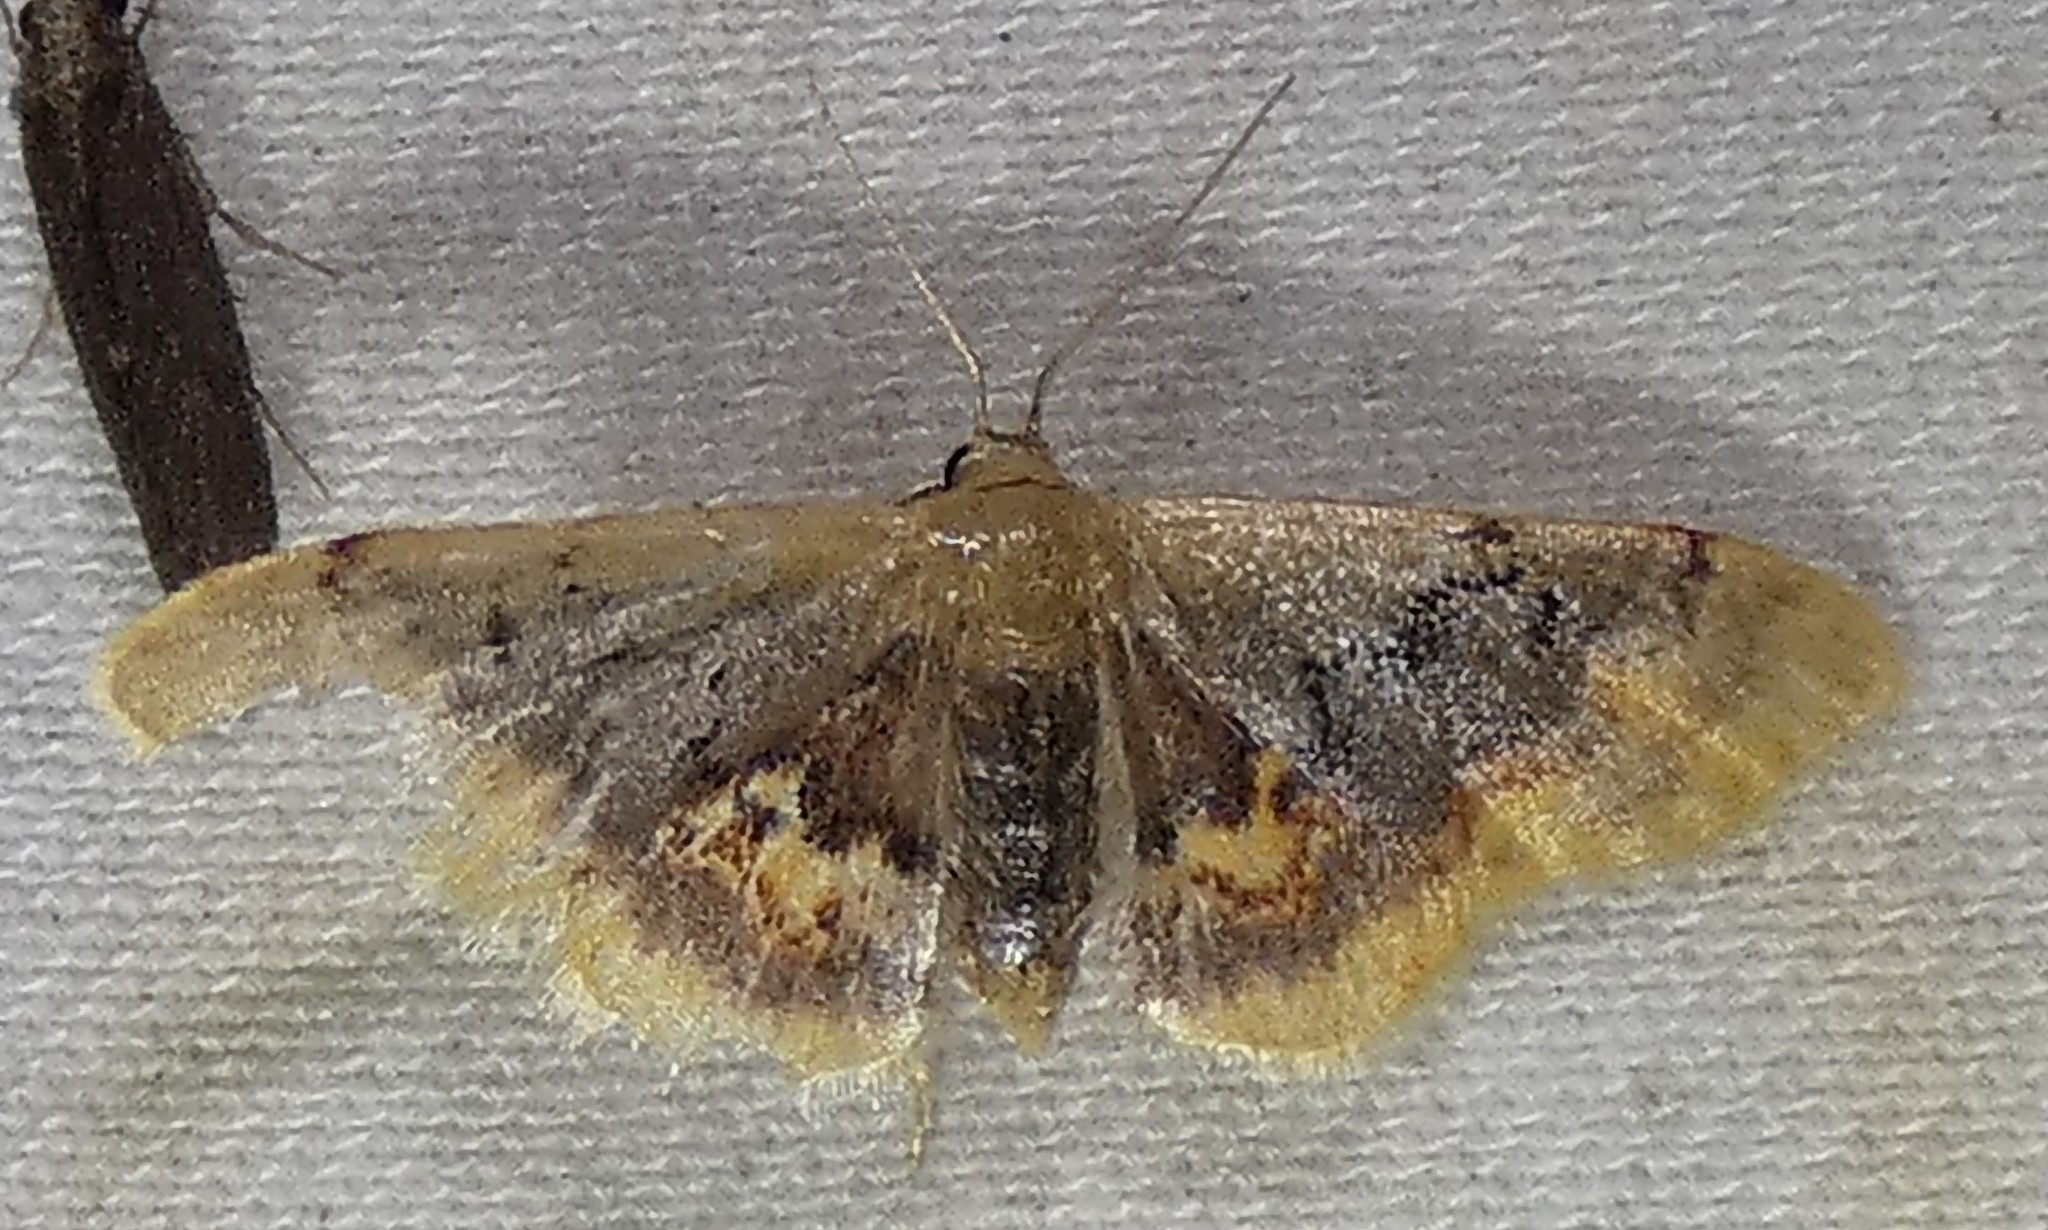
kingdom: Animalia
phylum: Arthropoda
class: Insecta
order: Lepidoptera
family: Geometridae
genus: Idaea
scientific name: Idaea scintillularia
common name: Diminutive wave
